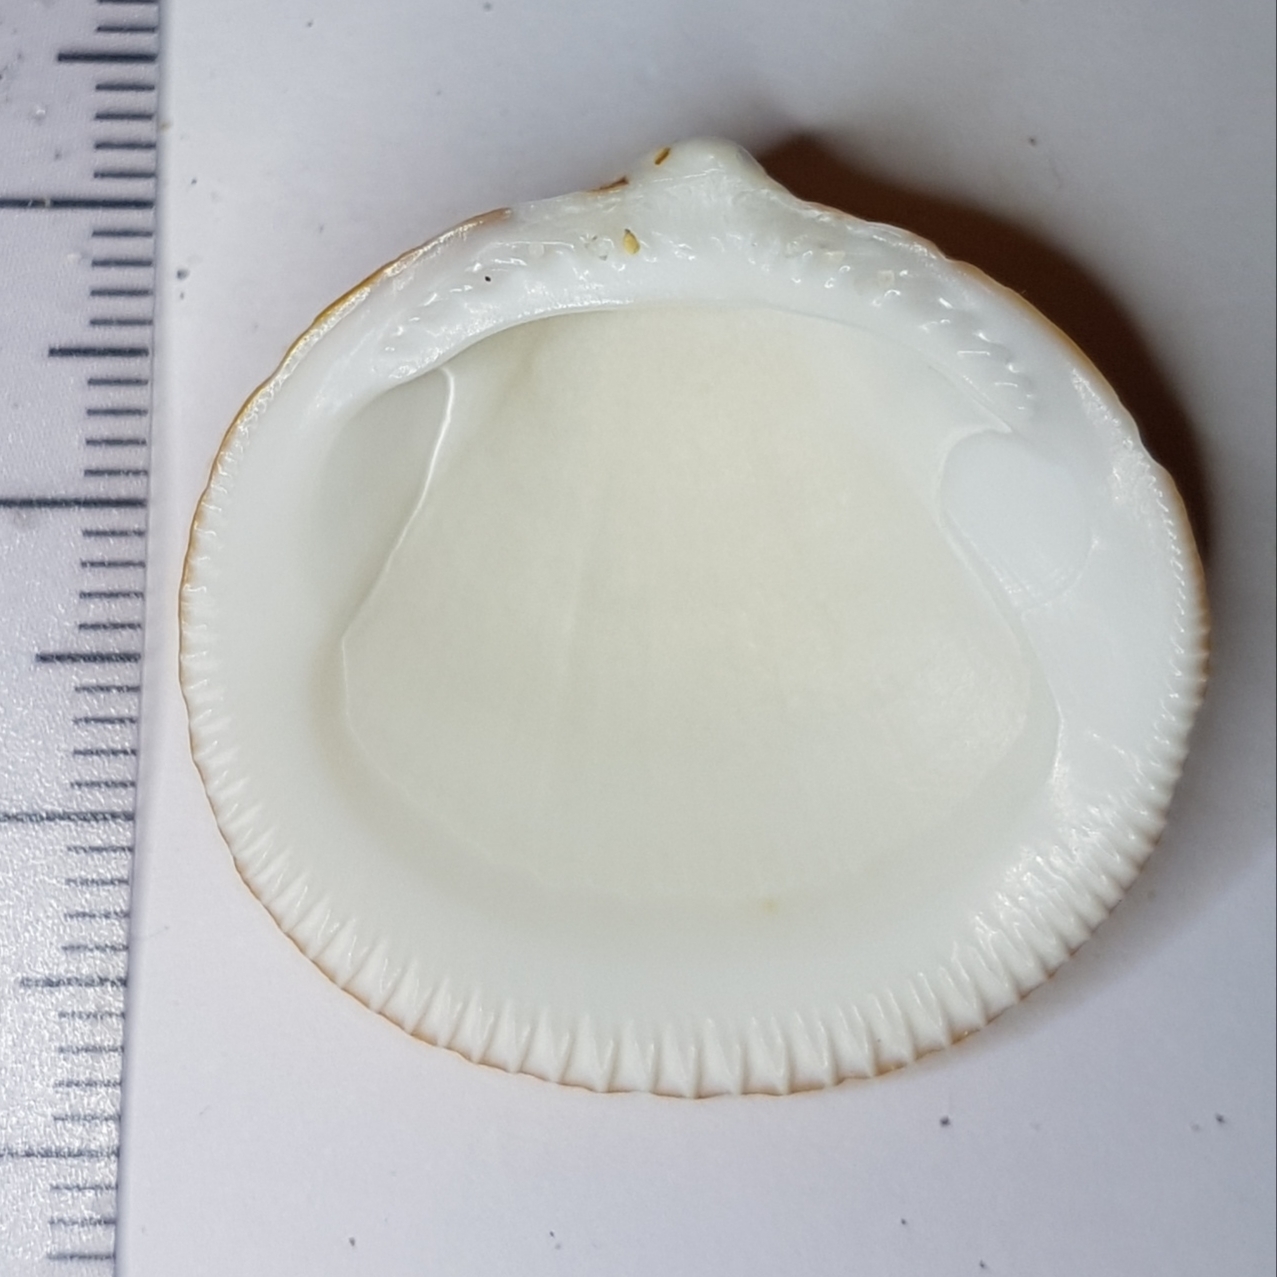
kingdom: Animalia
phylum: Mollusca
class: Bivalvia
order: Arcida
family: Glycymerididae
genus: Glycymeris
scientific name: Glycymeris glycymeris
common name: Dog-cockle
